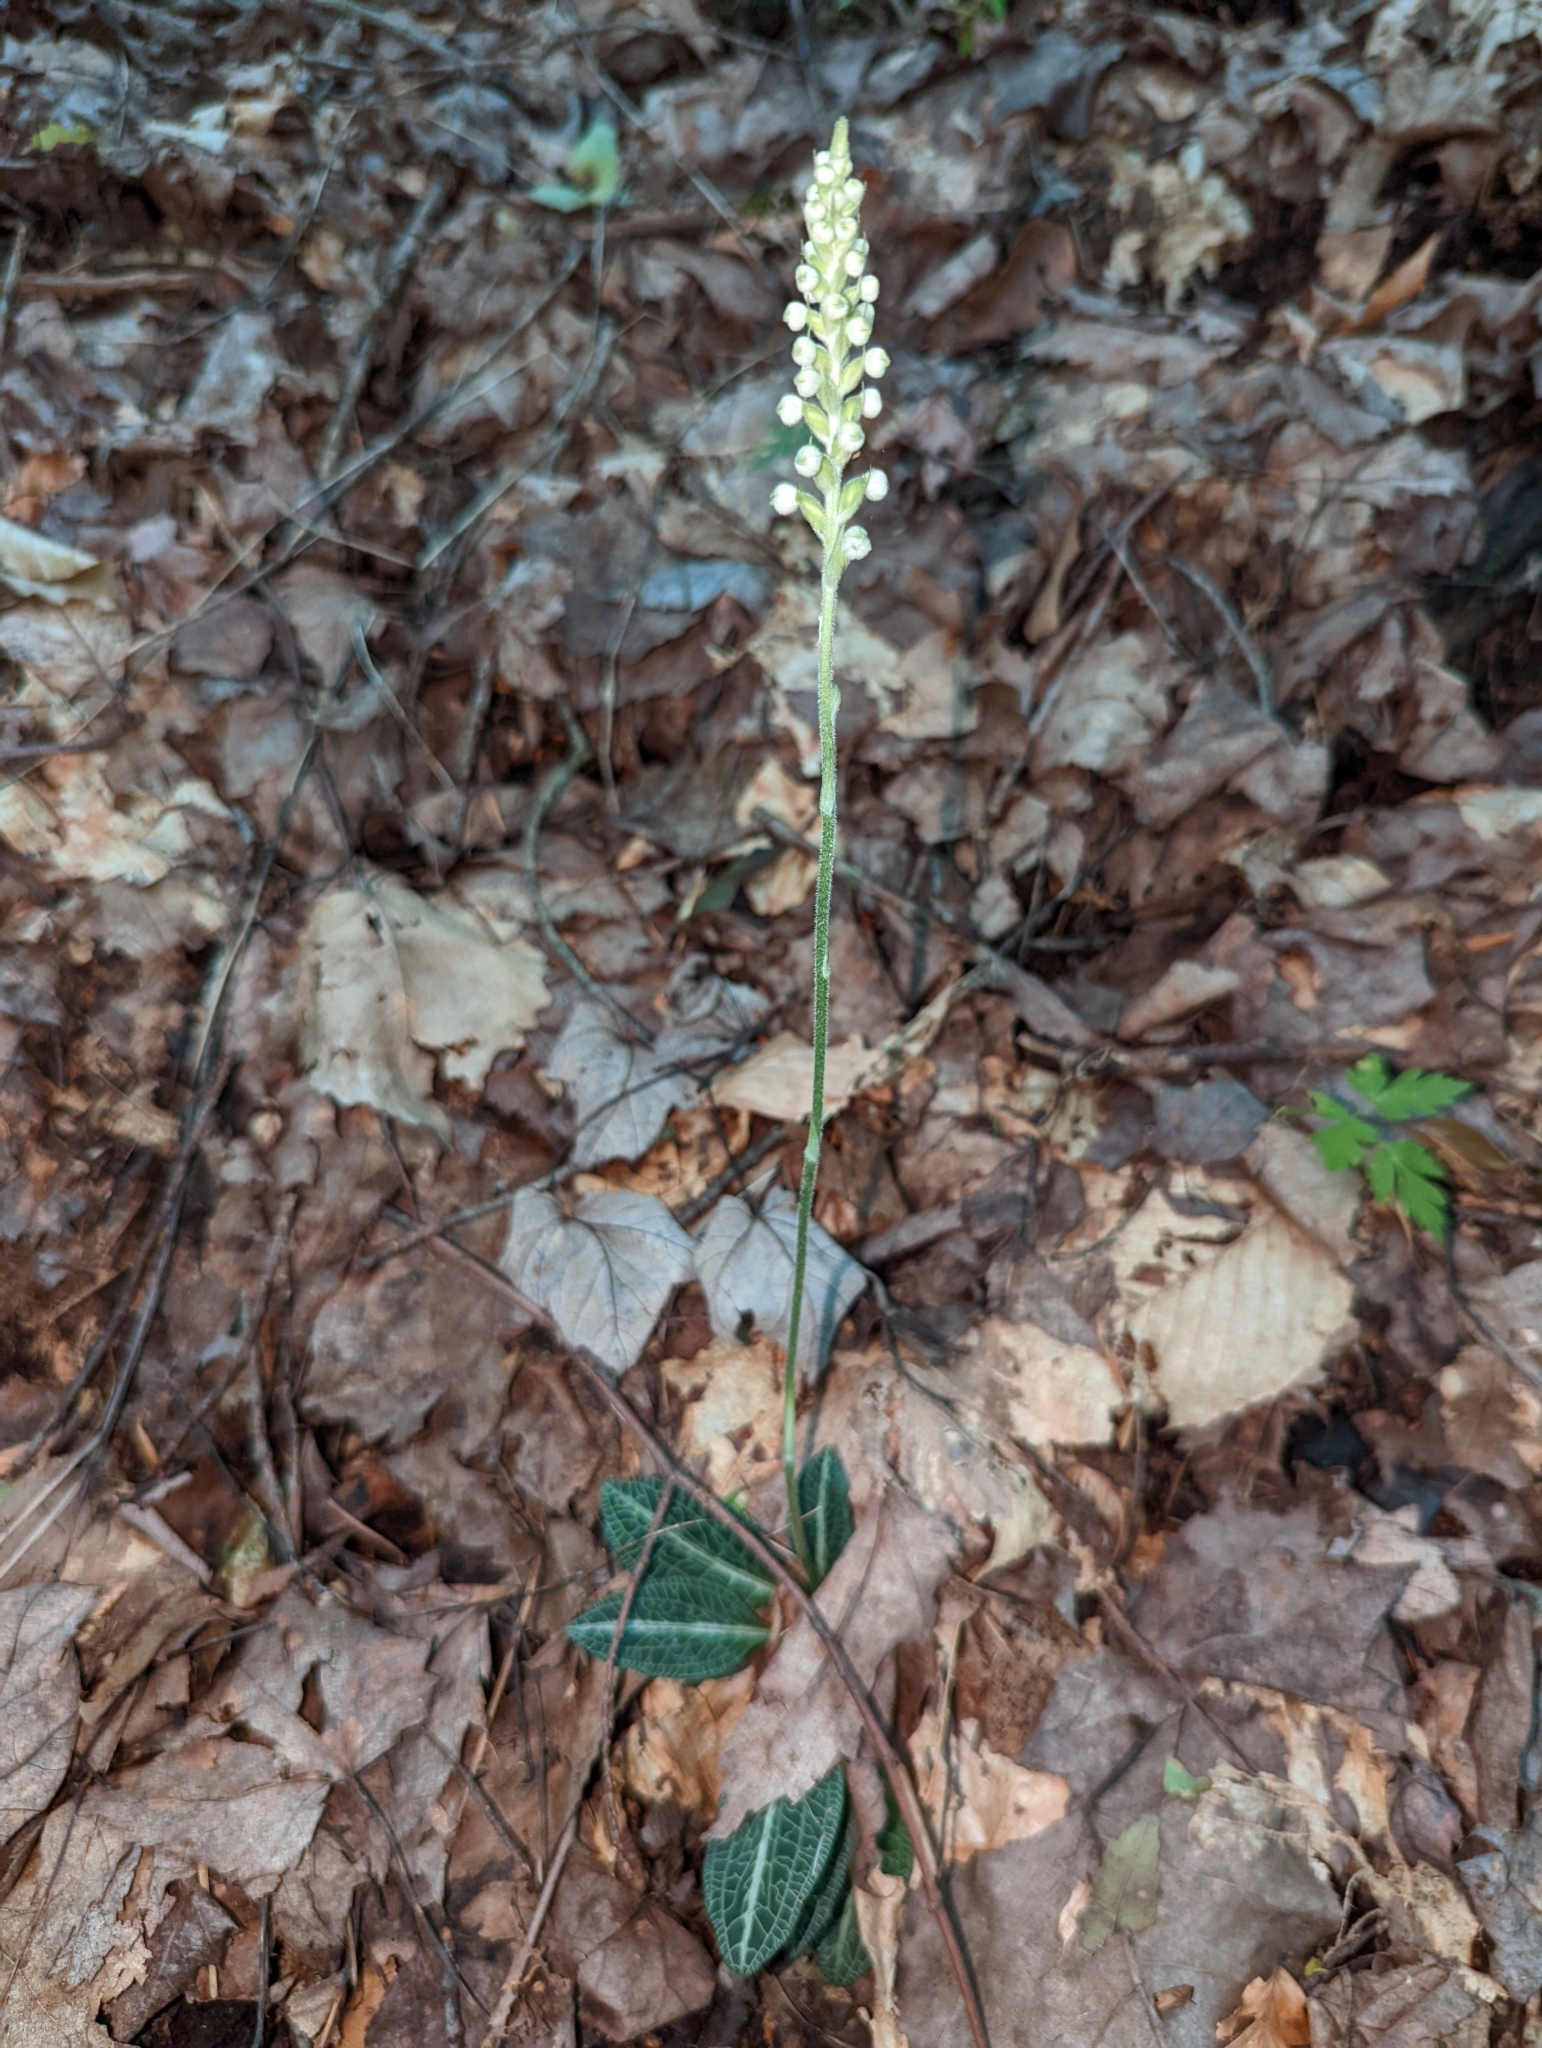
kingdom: Plantae
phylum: Tracheophyta
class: Liliopsida
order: Asparagales
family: Orchidaceae
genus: Goodyera
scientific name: Goodyera pubescens
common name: Downy rattlesnake-plantain
